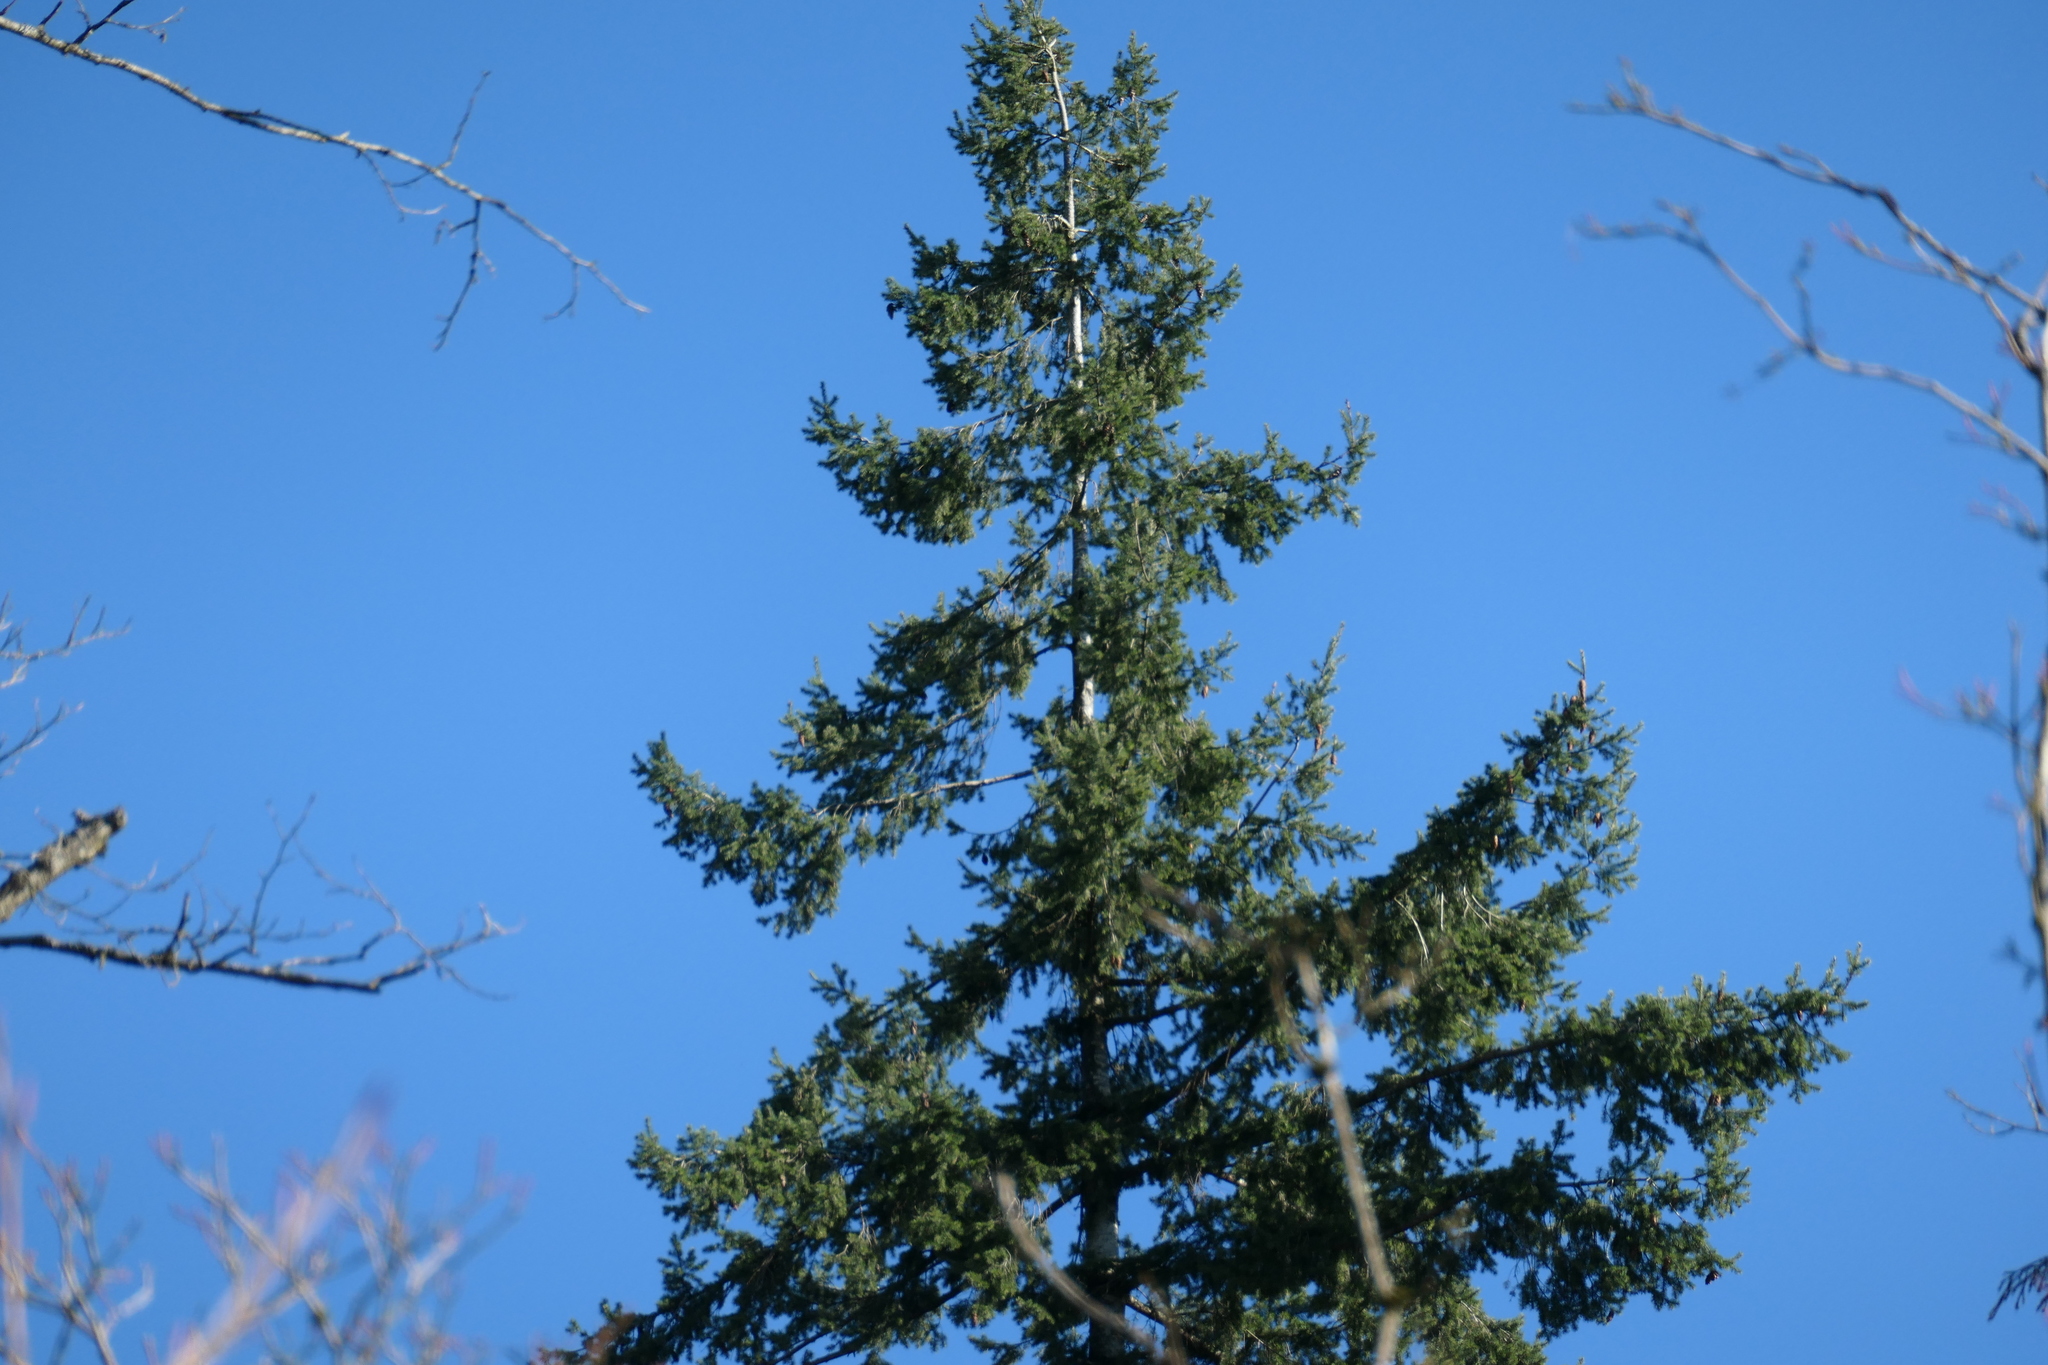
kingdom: Plantae
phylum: Tracheophyta
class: Pinopsida
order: Pinales
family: Pinaceae
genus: Pseudotsuga
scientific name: Pseudotsuga menziesii
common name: Douglas fir
